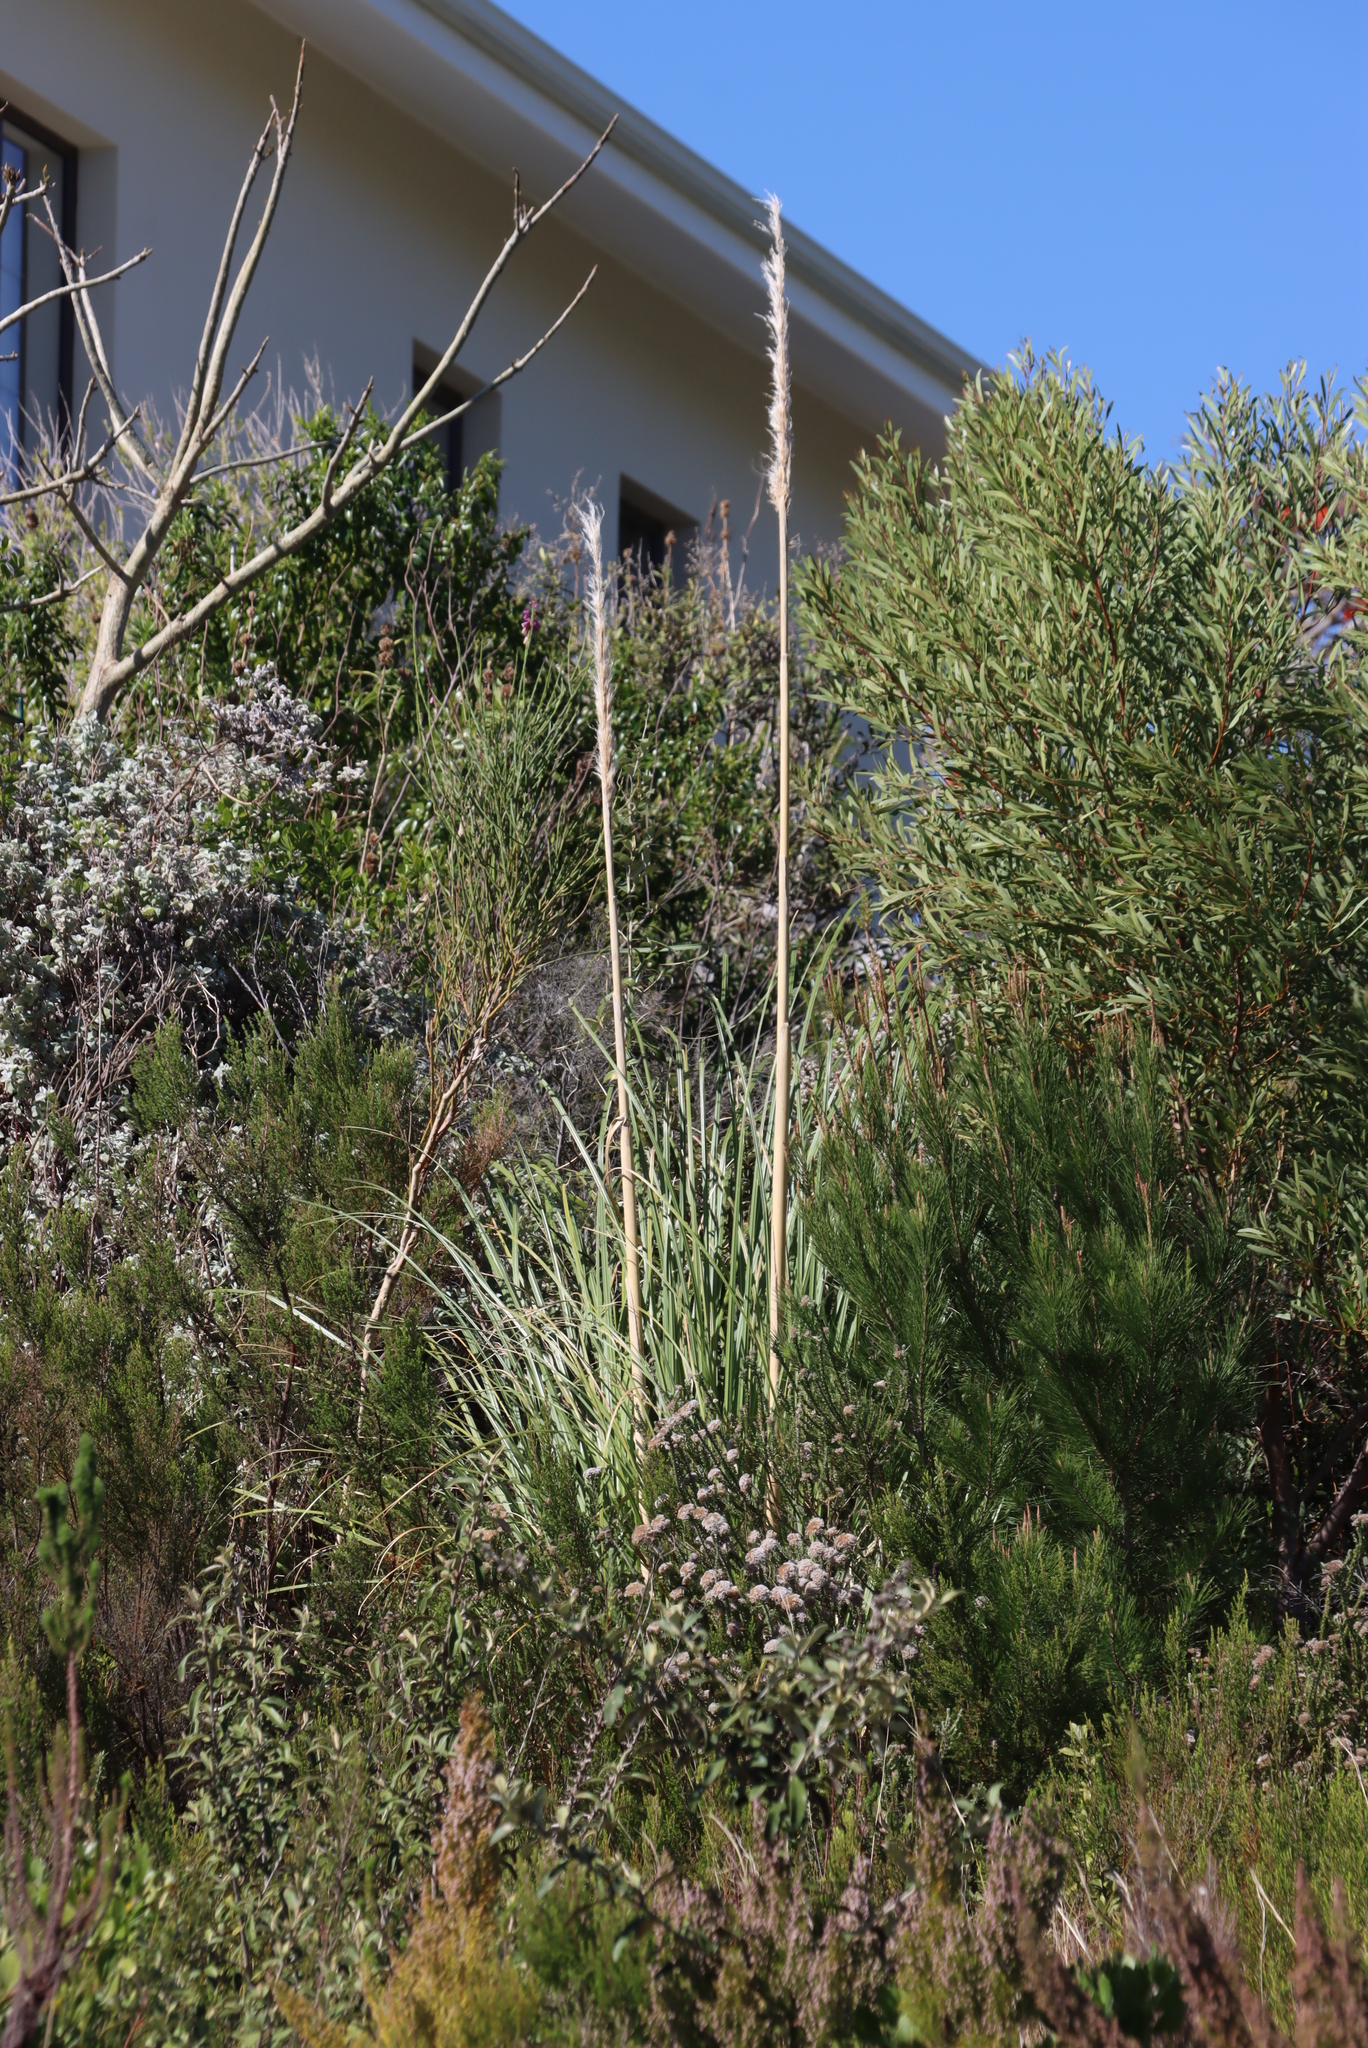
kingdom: Plantae
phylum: Tracheophyta
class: Liliopsida
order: Poales
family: Poaceae
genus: Cortaderia
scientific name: Cortaderia selloana
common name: Uruguayan pampas grass
